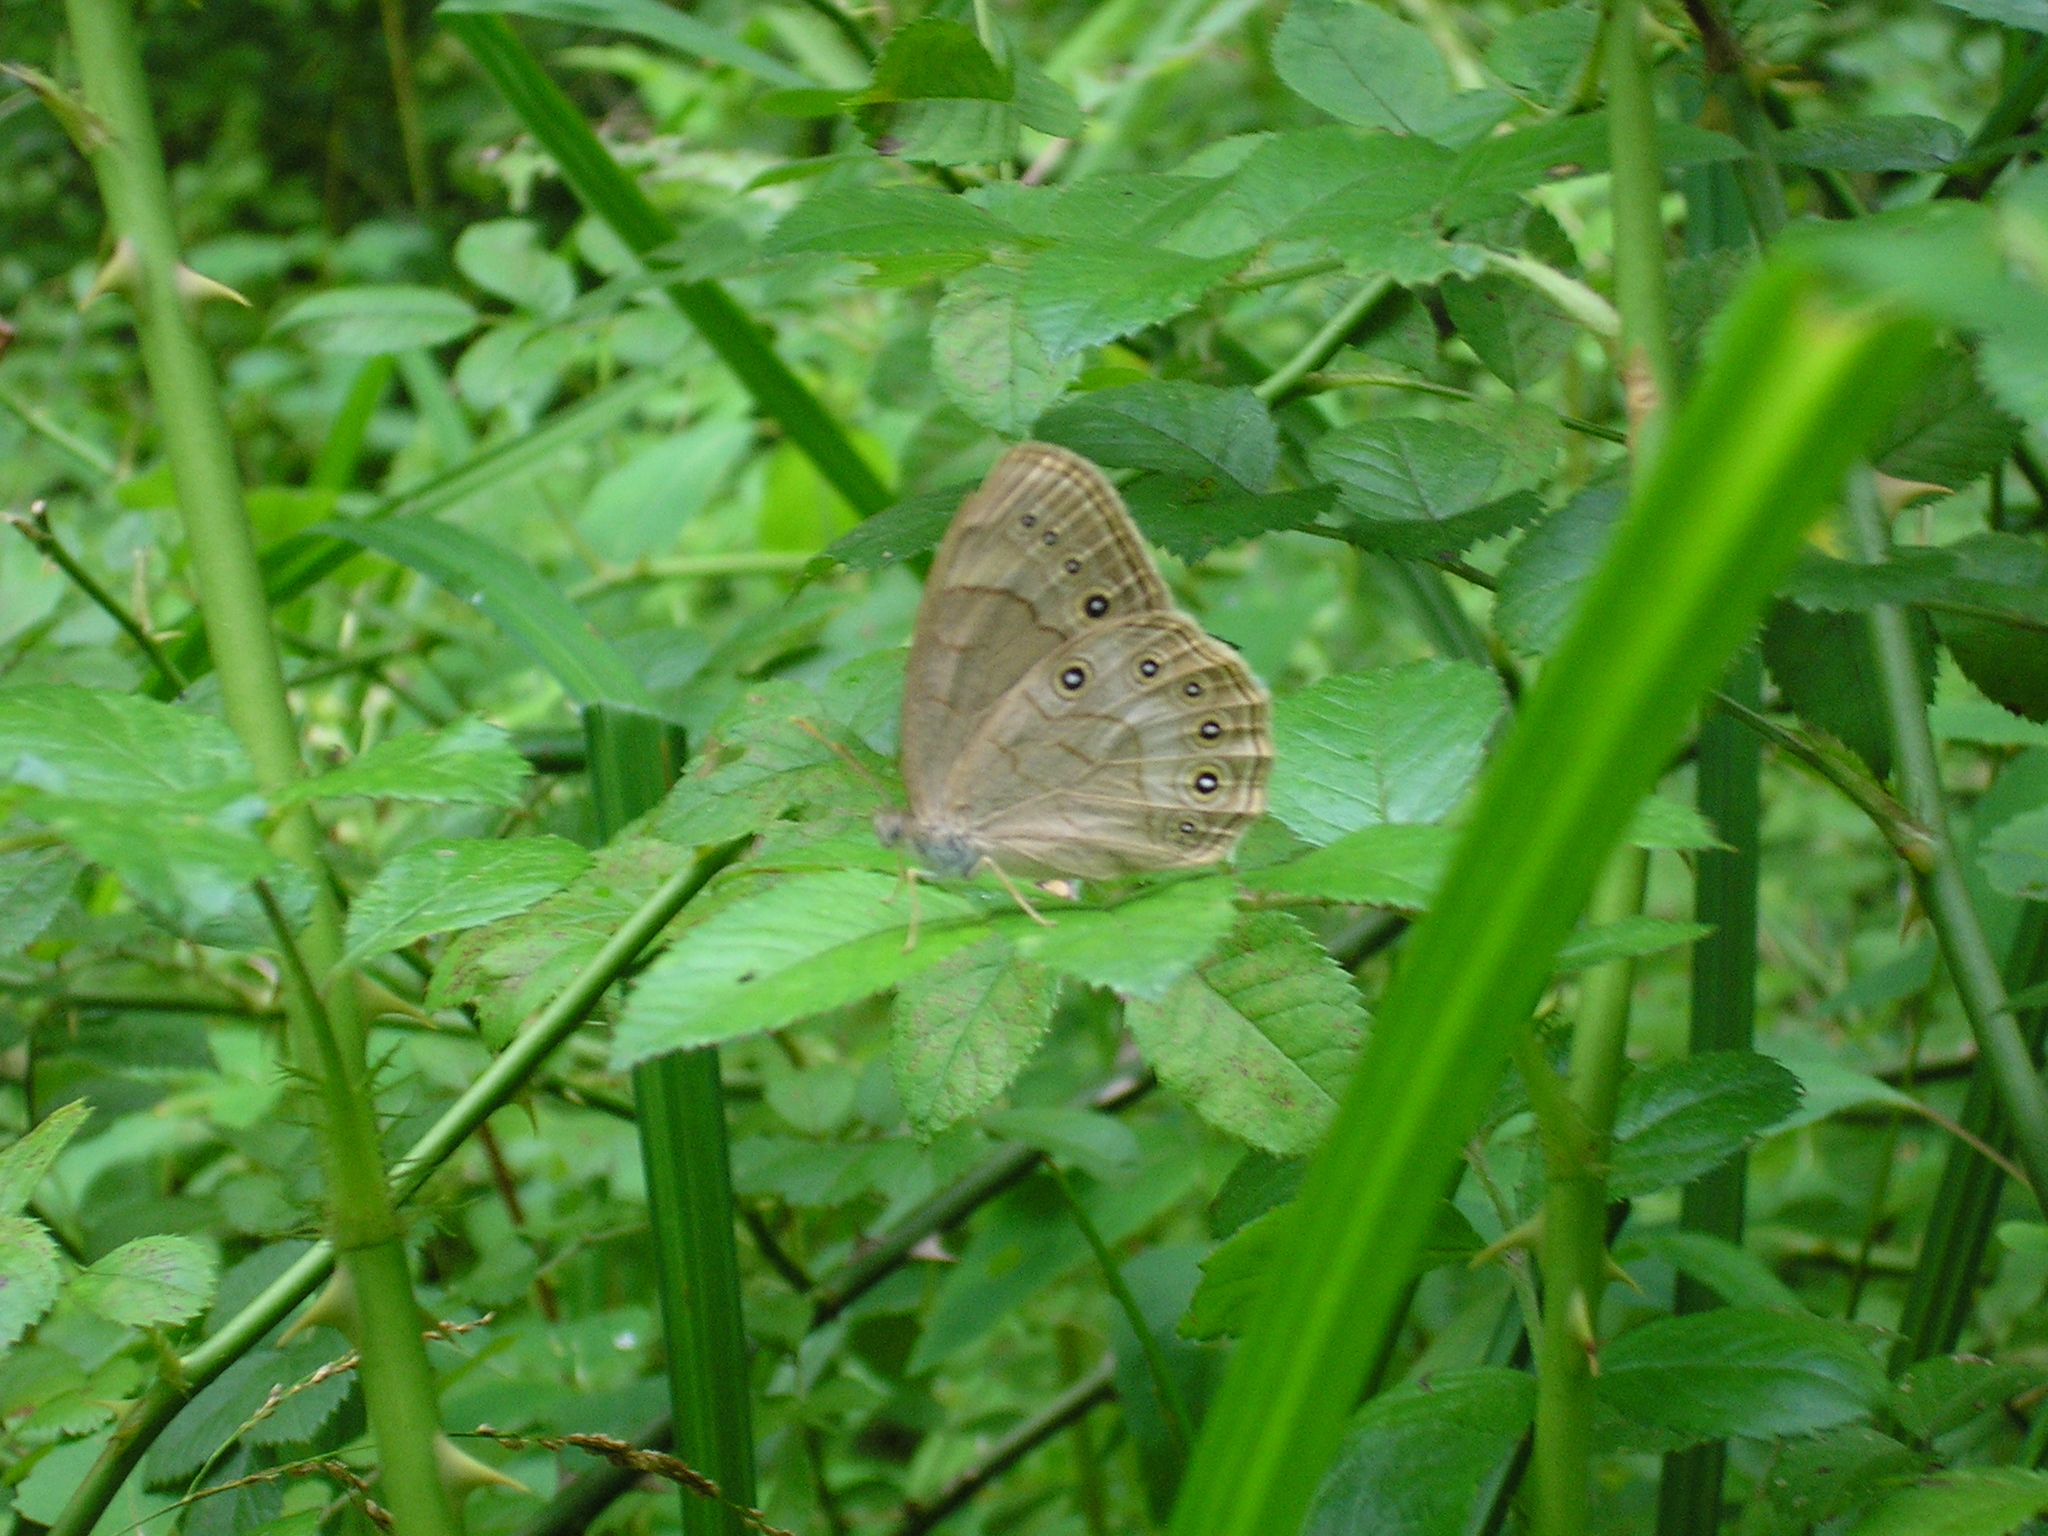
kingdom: Animalia
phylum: Arthropoda
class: Insecta
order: Lepidoptera
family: Nymphalidae
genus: Lethe
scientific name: Lethe eurydice
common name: Eyed brown
